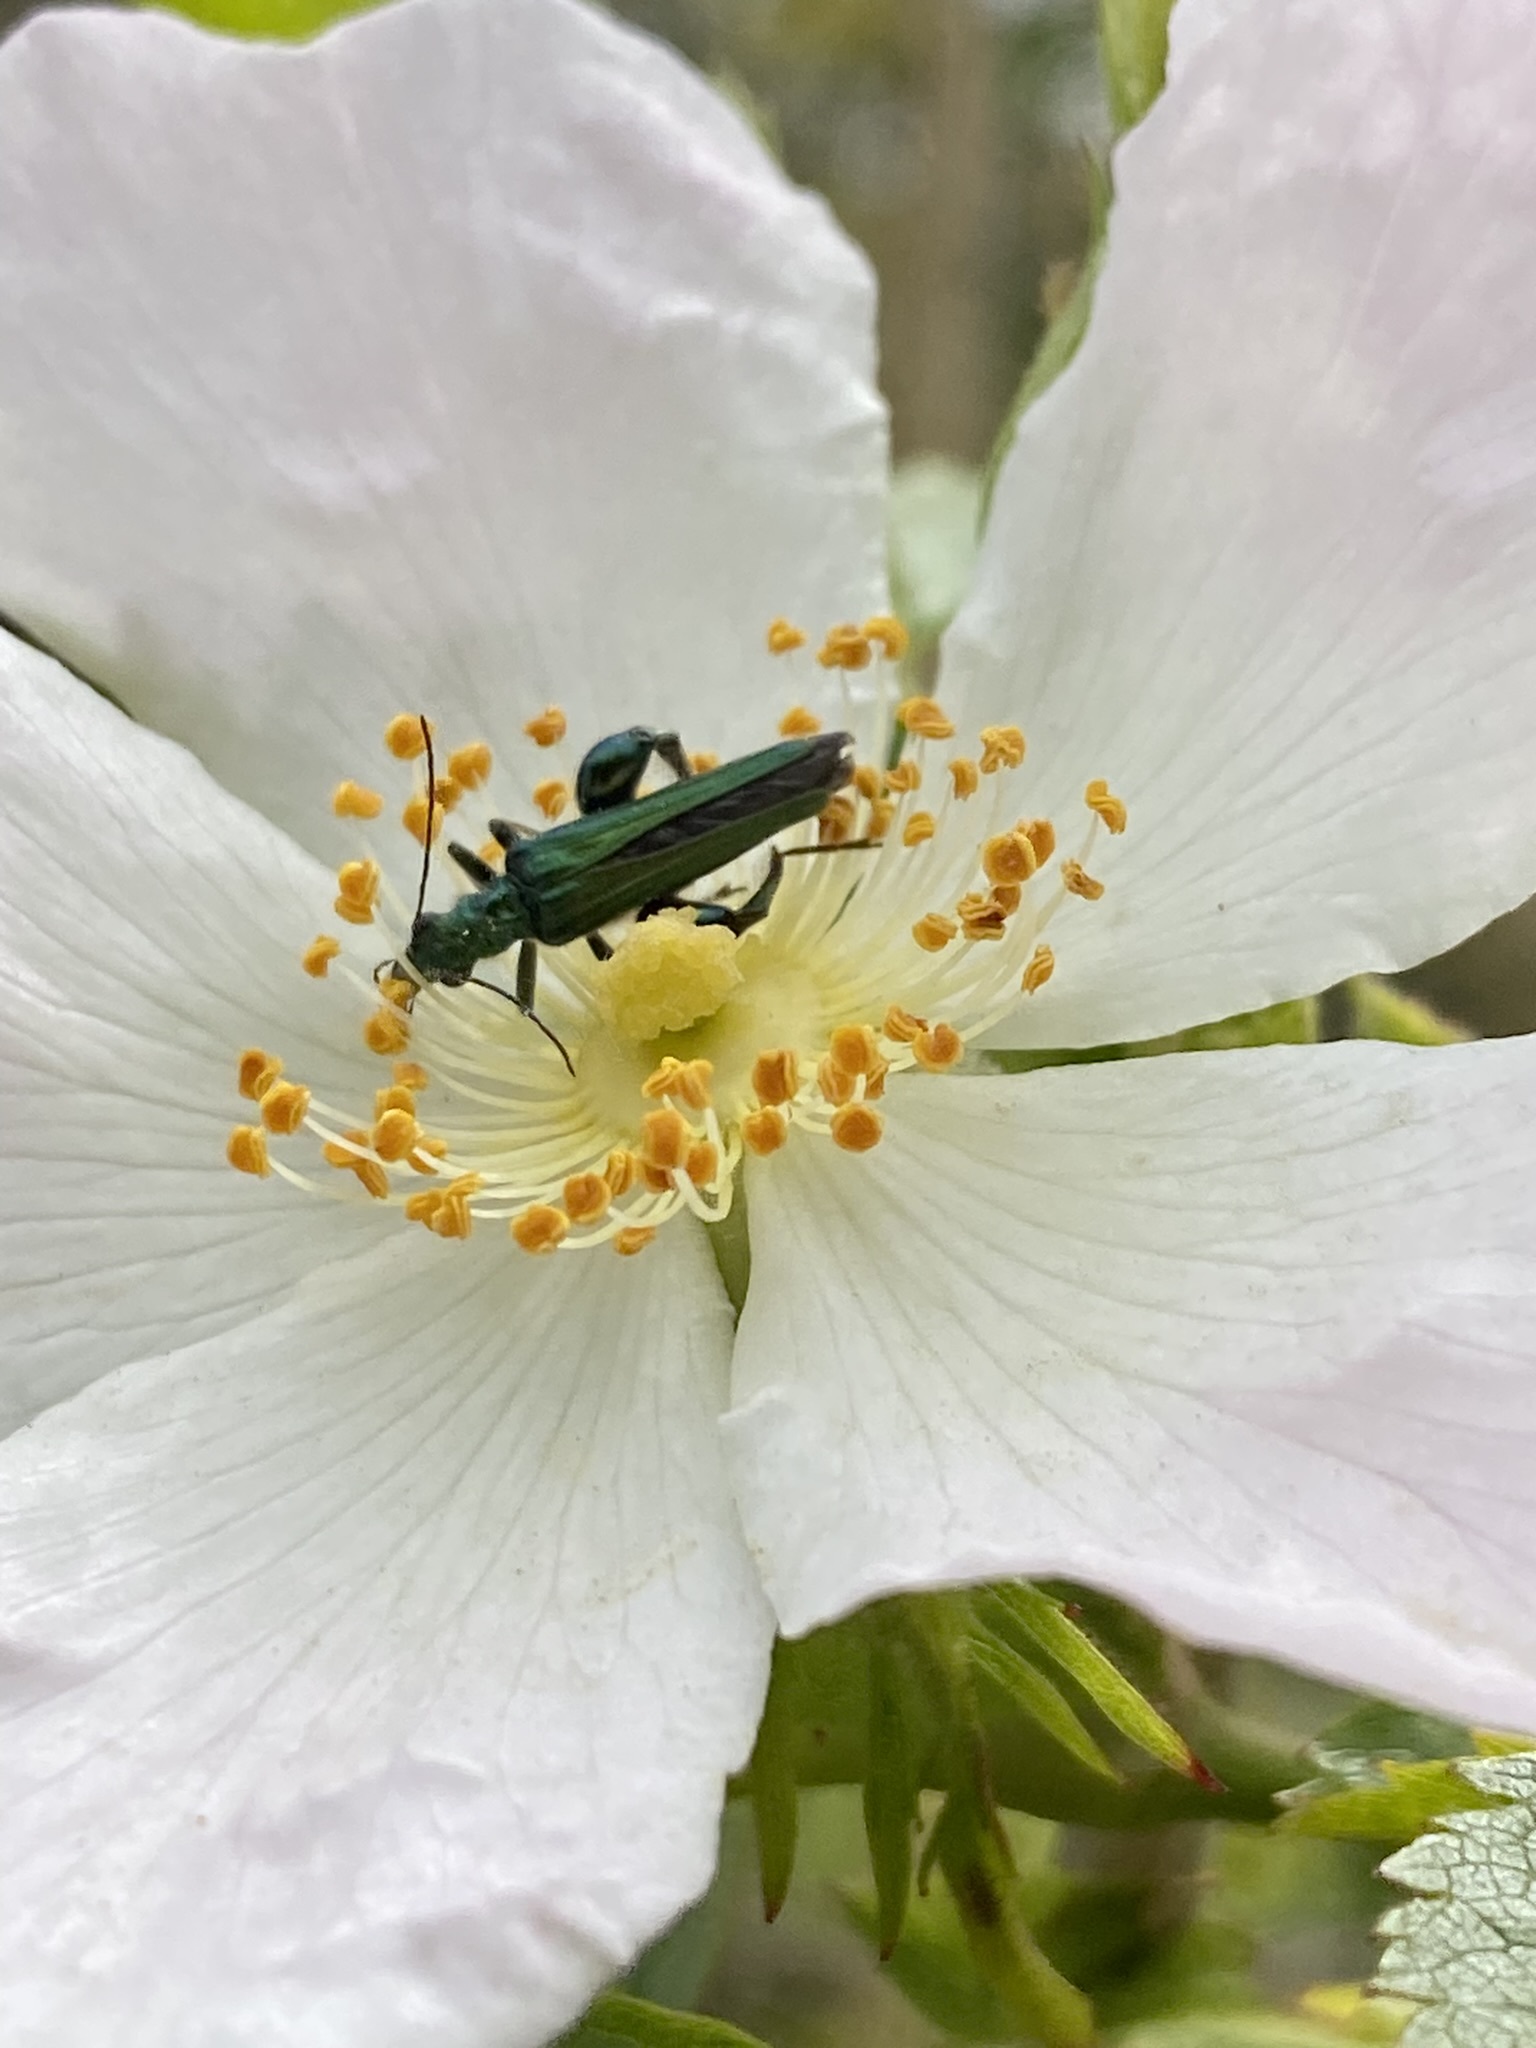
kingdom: Animalia
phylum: Arthropoda
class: Insecta
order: Coleoptera
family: Oedemeridae
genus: Oedemera
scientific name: Oedemera nobilis
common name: Swollen-thighed beetle
